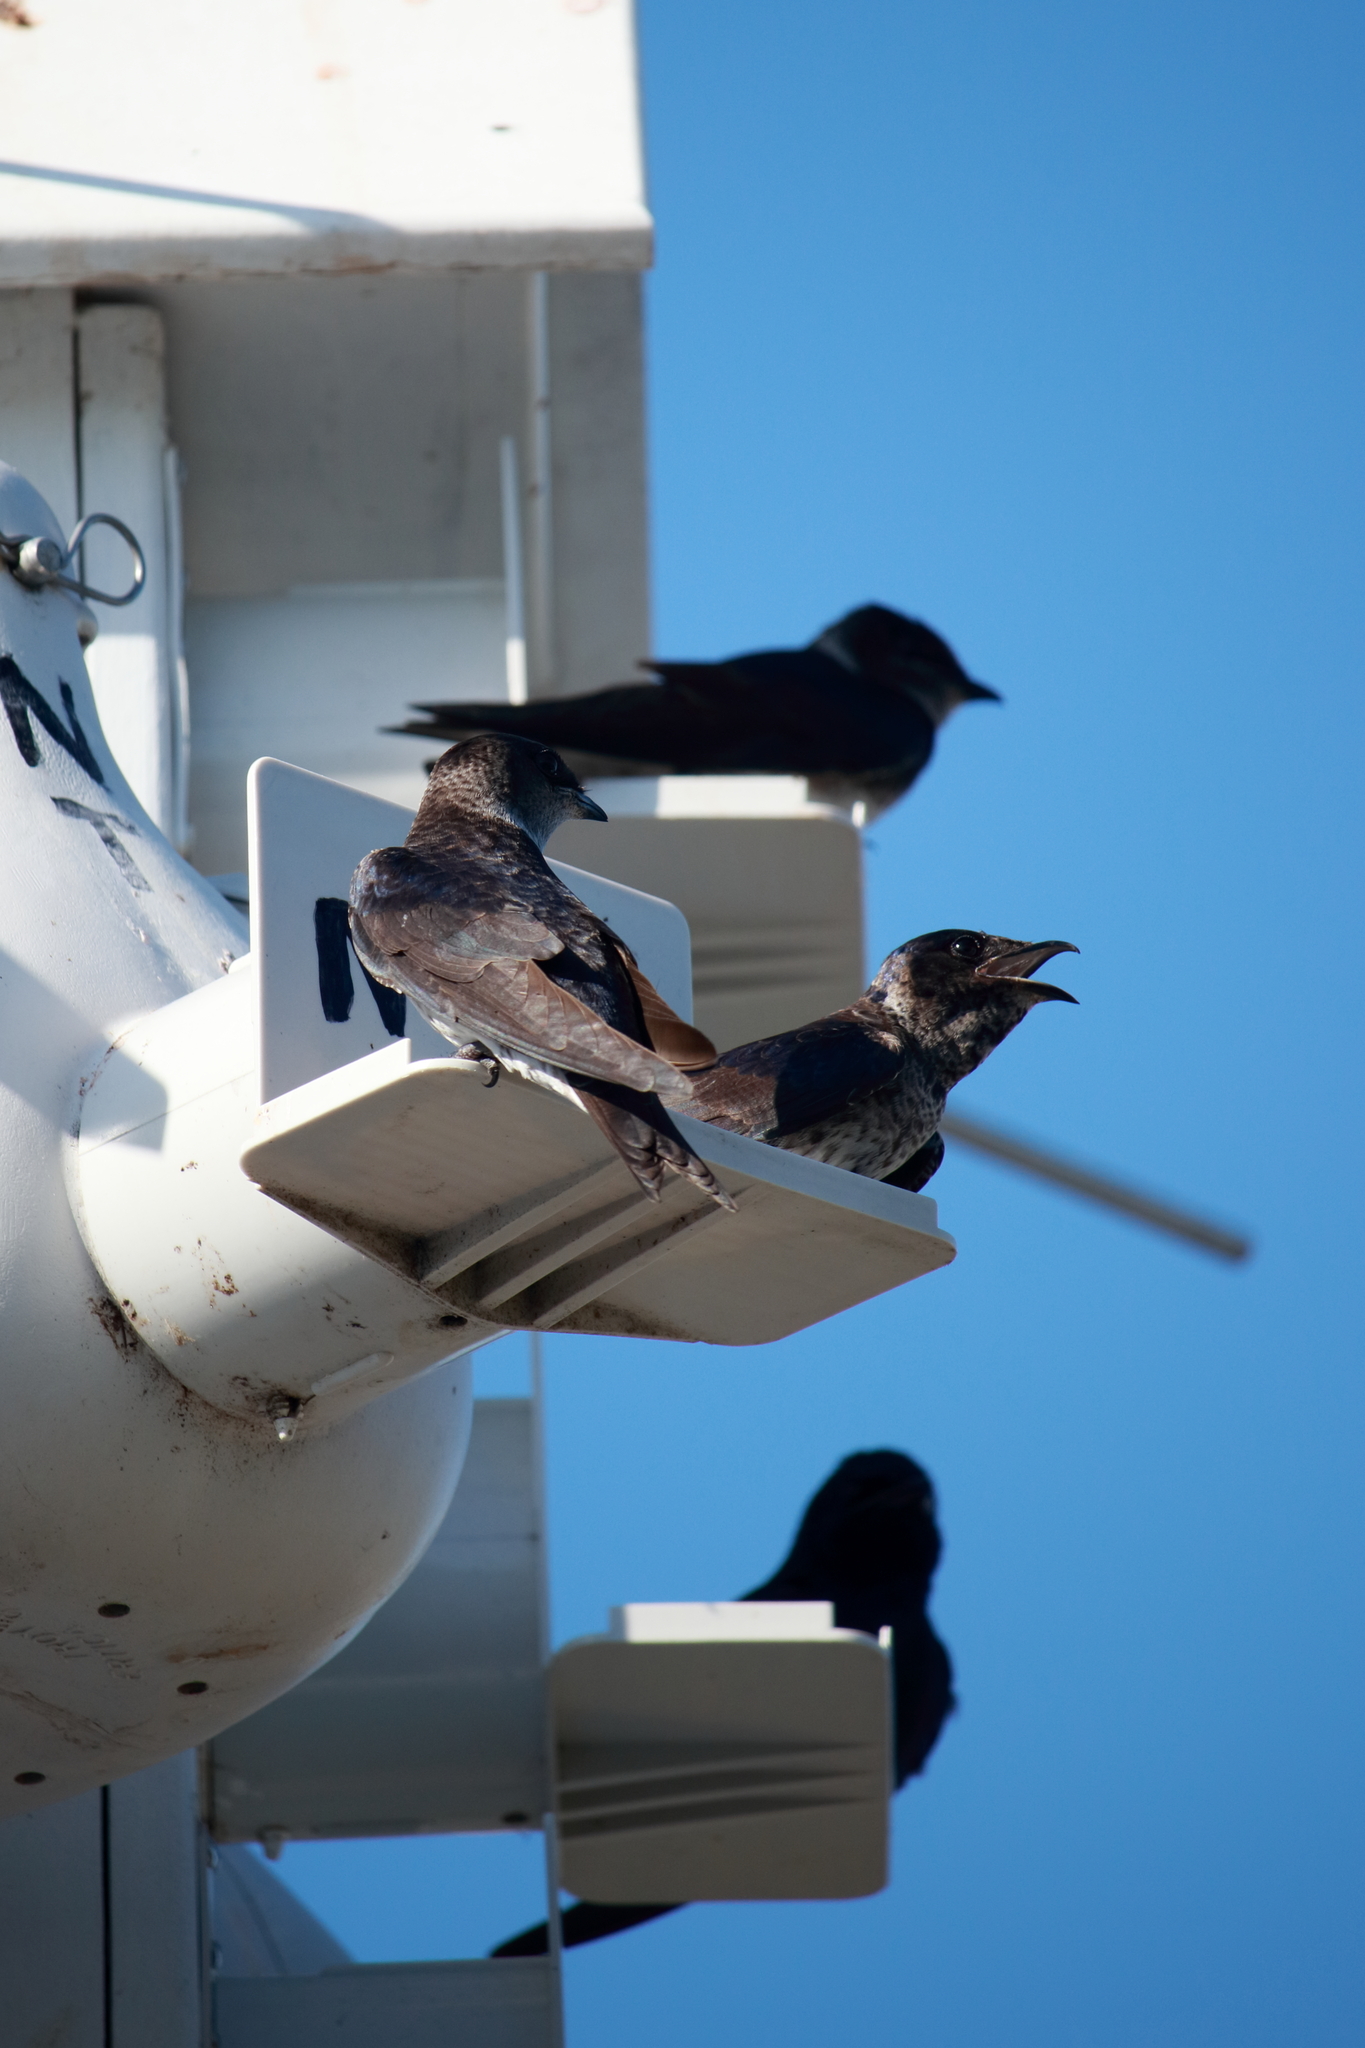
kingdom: Animalia
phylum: Chordata
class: Aves
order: Passeriformes
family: Hirundinidae
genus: Progne
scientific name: Progne subis
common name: Purple martin
